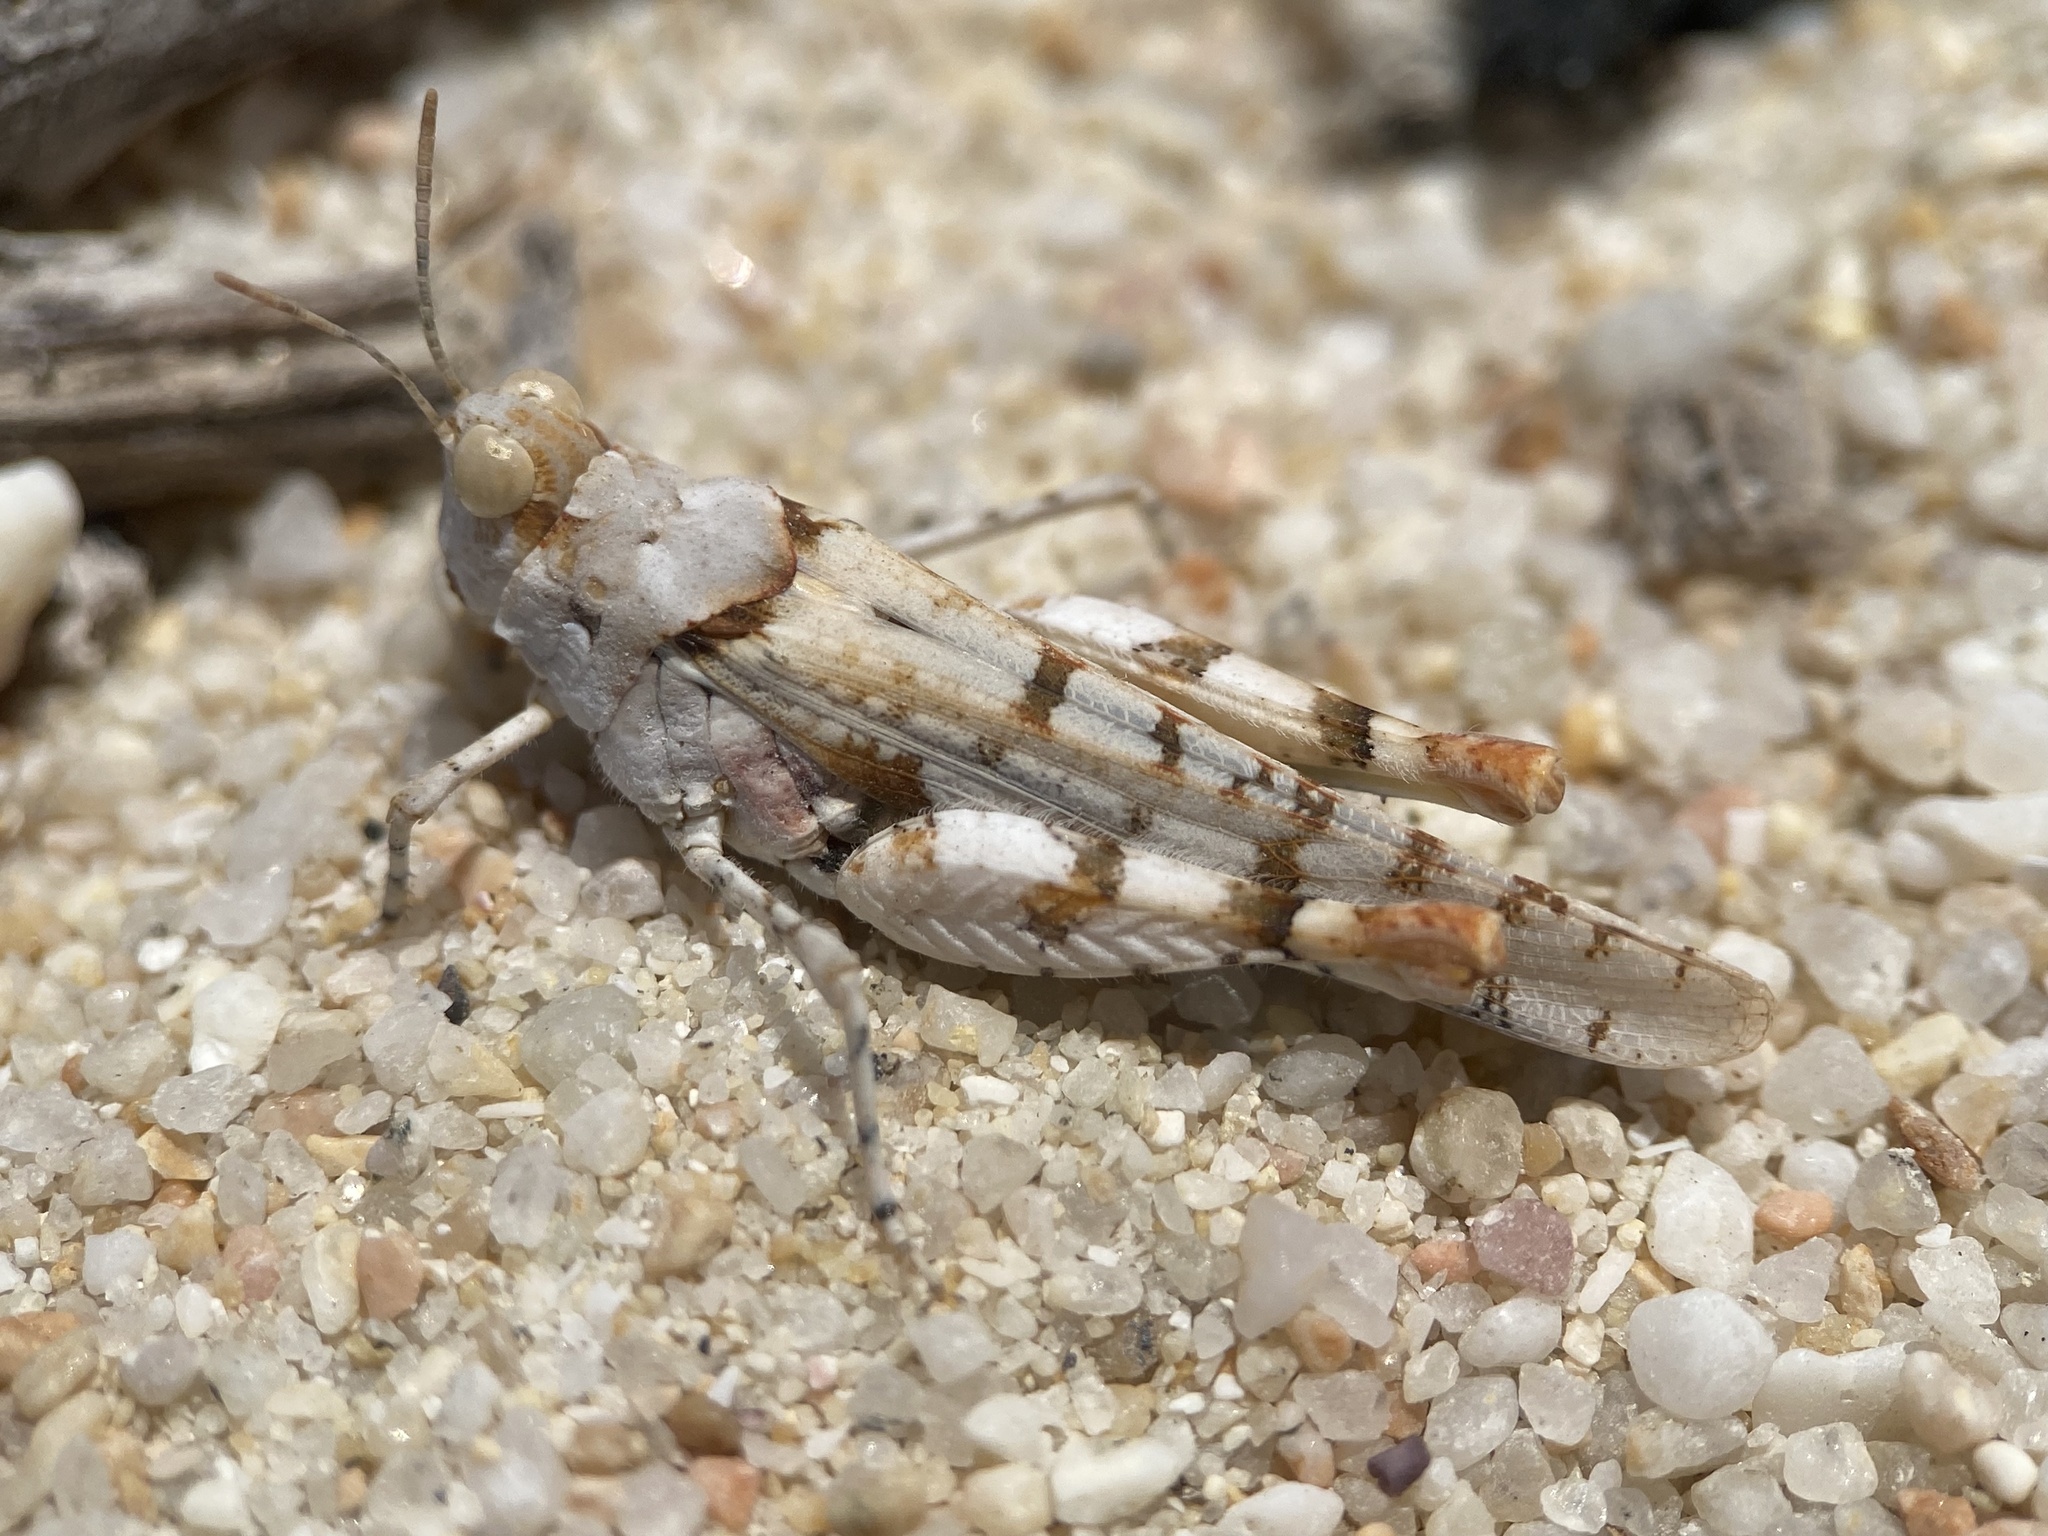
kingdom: Animalia
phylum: Arthropoda
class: Insecta
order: Orthoptera
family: Acrididae
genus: Cibolacris
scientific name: Cibolacris parviceps
